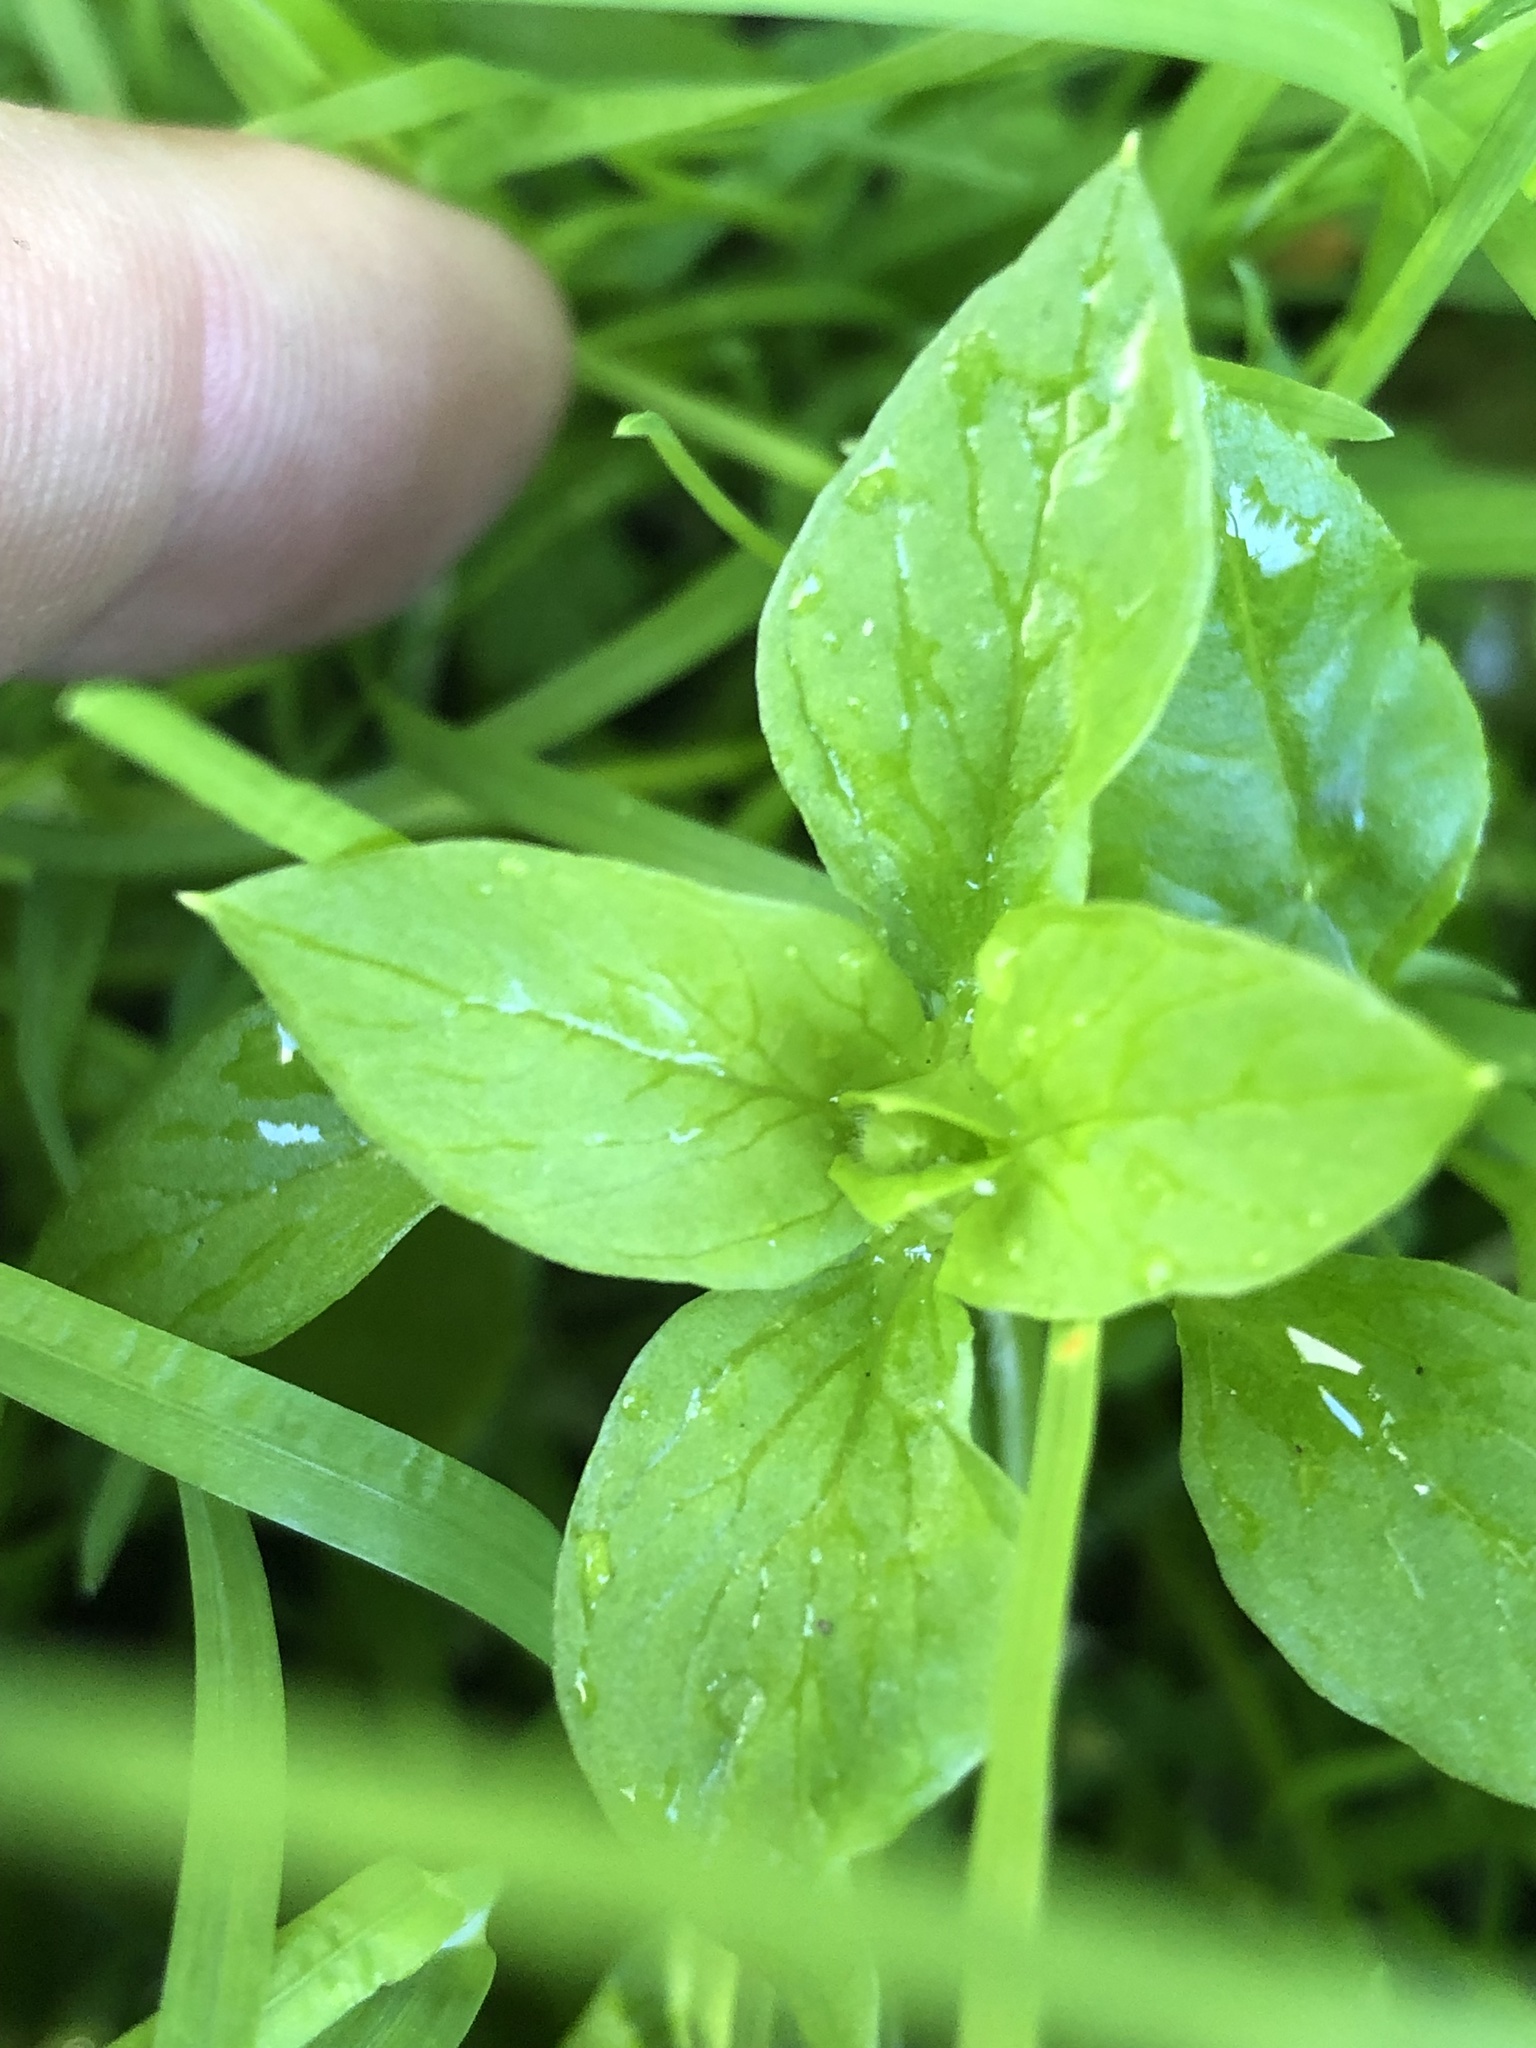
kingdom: Plantae
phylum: Tracheophyta
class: Magnoliopsida
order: Caryophyllales
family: Caryophyllaceae
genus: Stellaria
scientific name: Stellaria media
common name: Common chickweed
